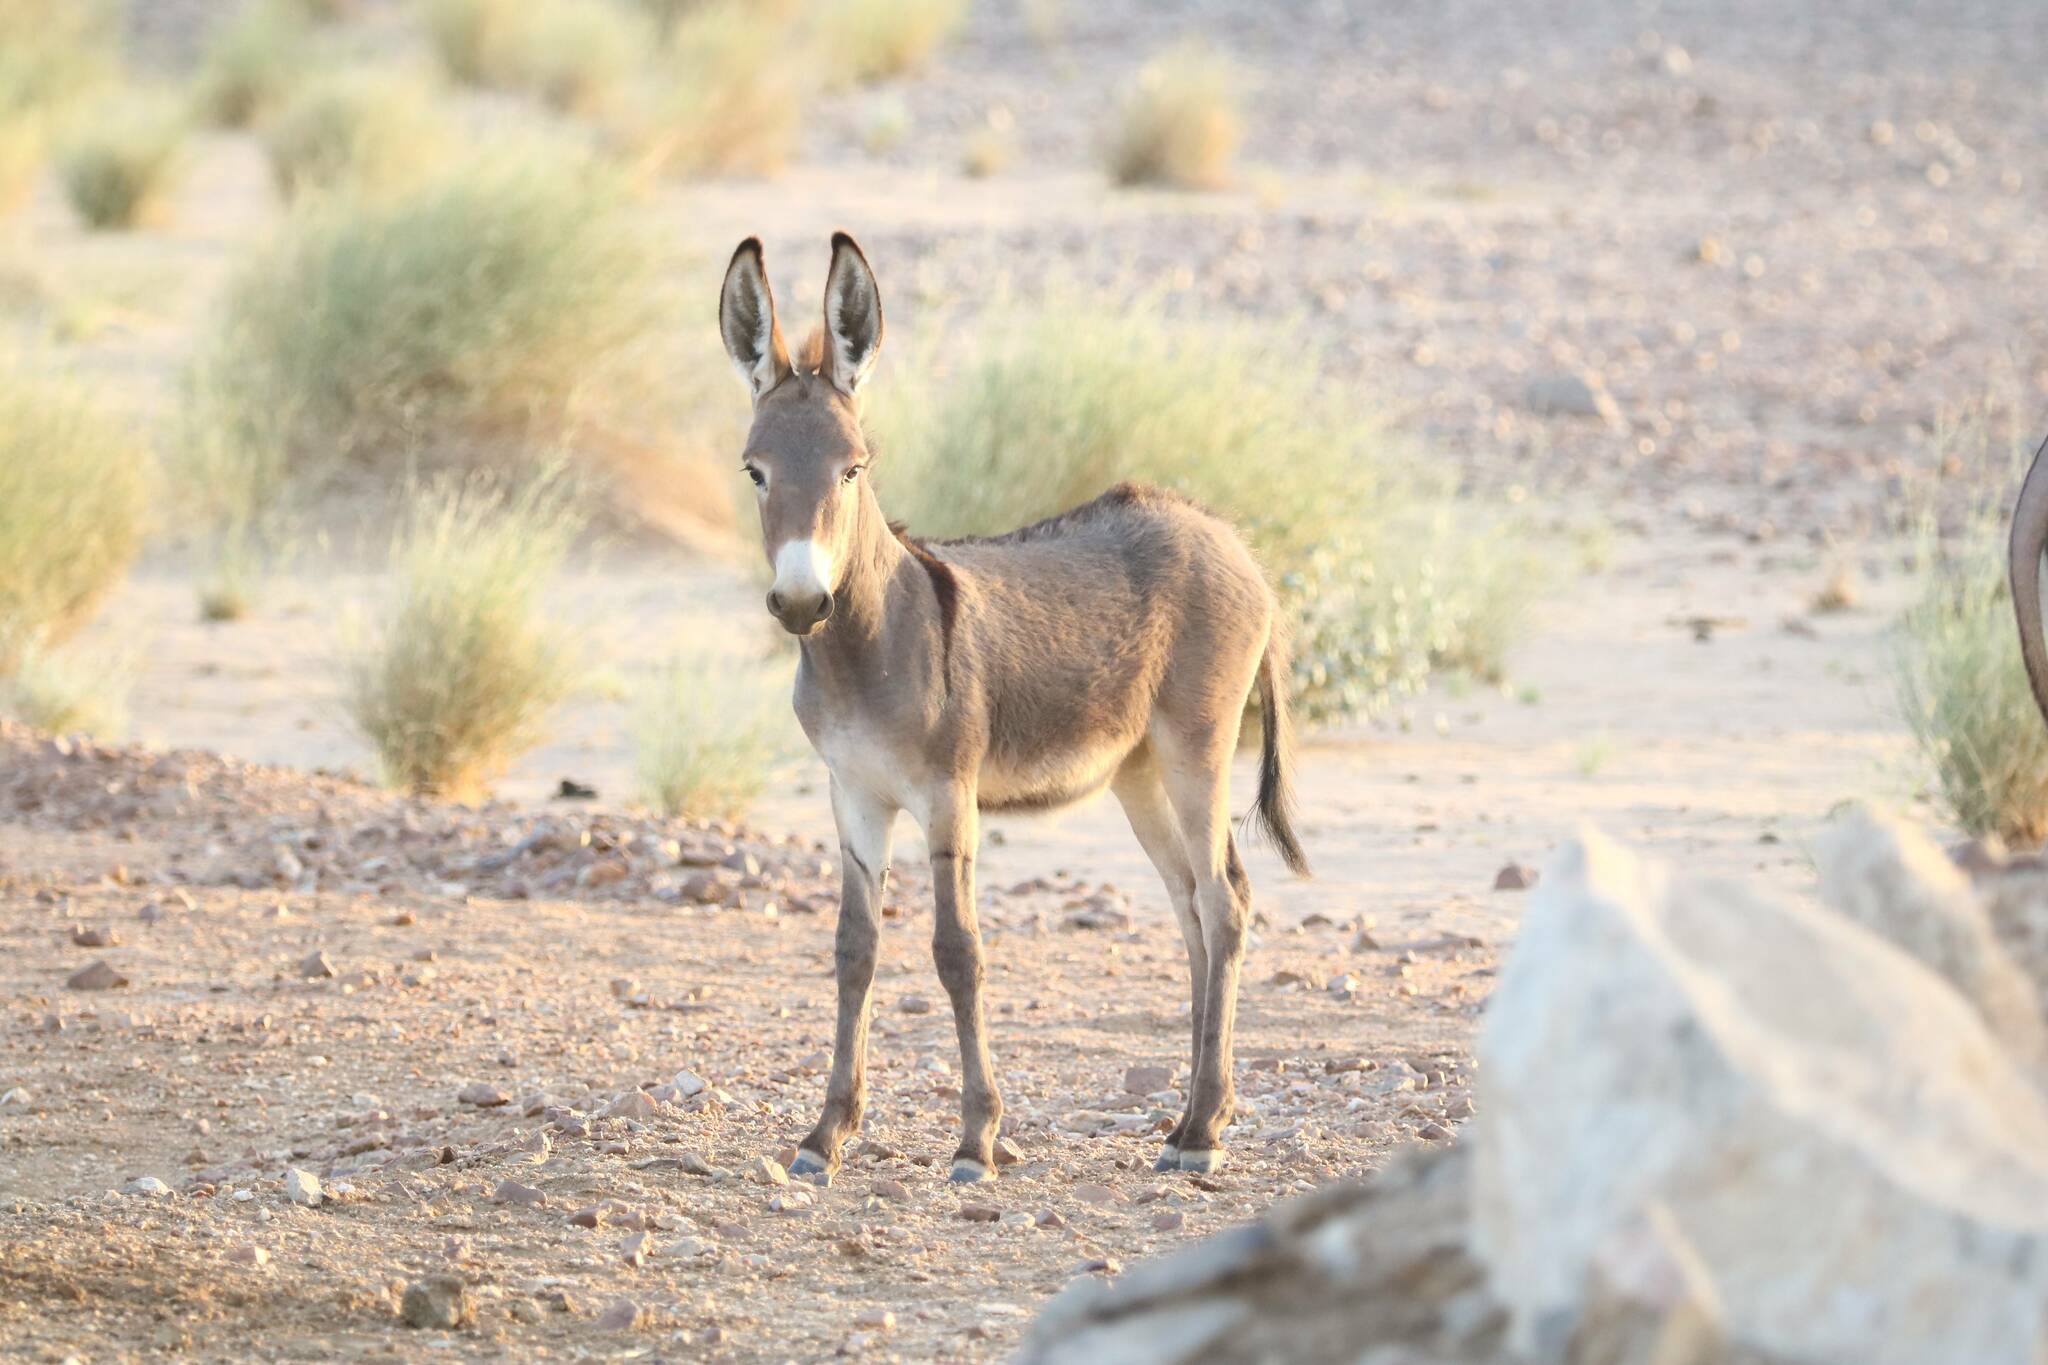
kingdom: Animalia
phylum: Chordata
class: Mammalia
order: Perissodactyla
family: Equidae
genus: Equus
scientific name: Equus asinus
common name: Ass
